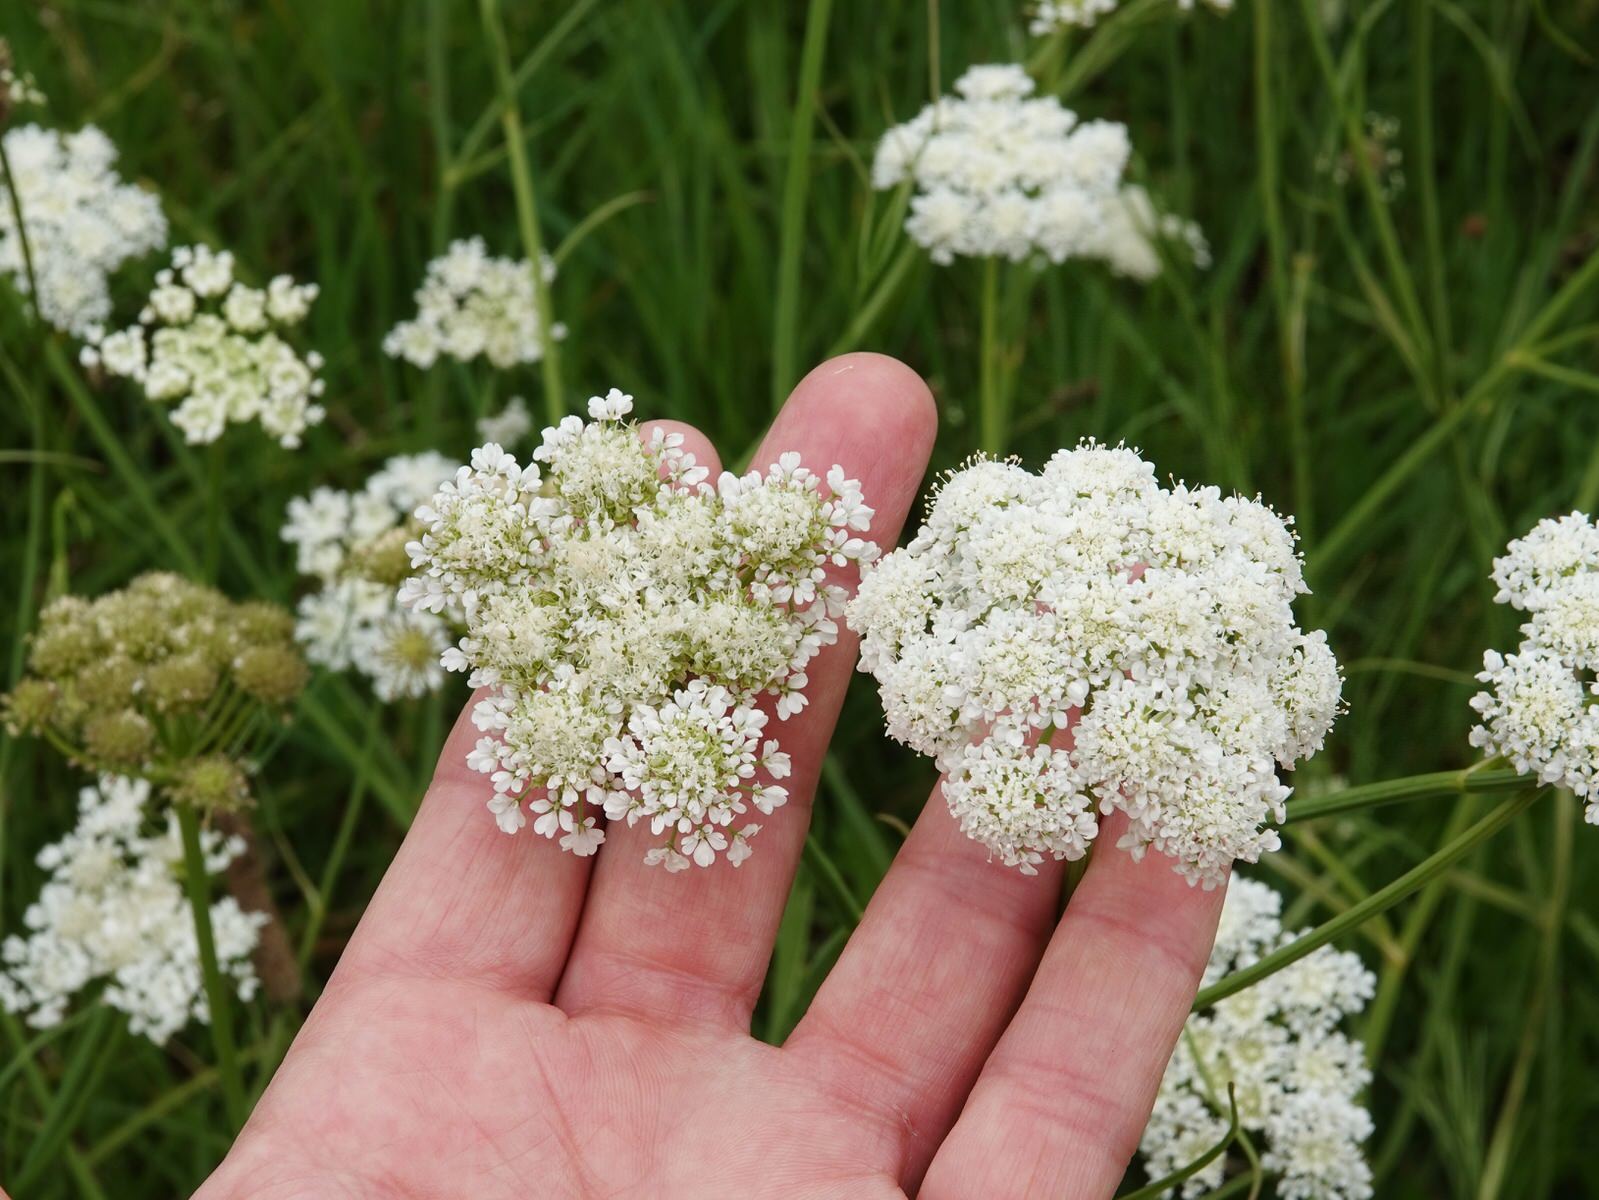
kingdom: Plantae
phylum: Tracheophyta
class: Magnoliopsida
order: Apiales
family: Apiaceae
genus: Daucus
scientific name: Daucus carota
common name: Wild carrot
